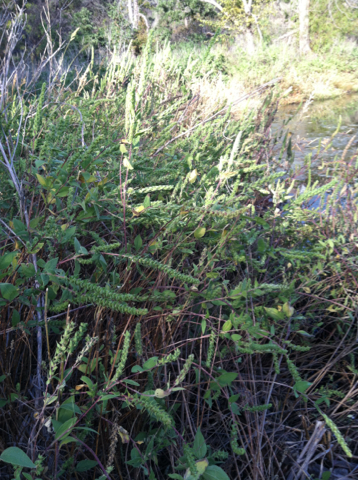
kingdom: Plantae
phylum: Tracheophyta
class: Magnoliopsida
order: Asterales
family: Asteraceae
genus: Iva
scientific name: Iva annua
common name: Marsh-elder
